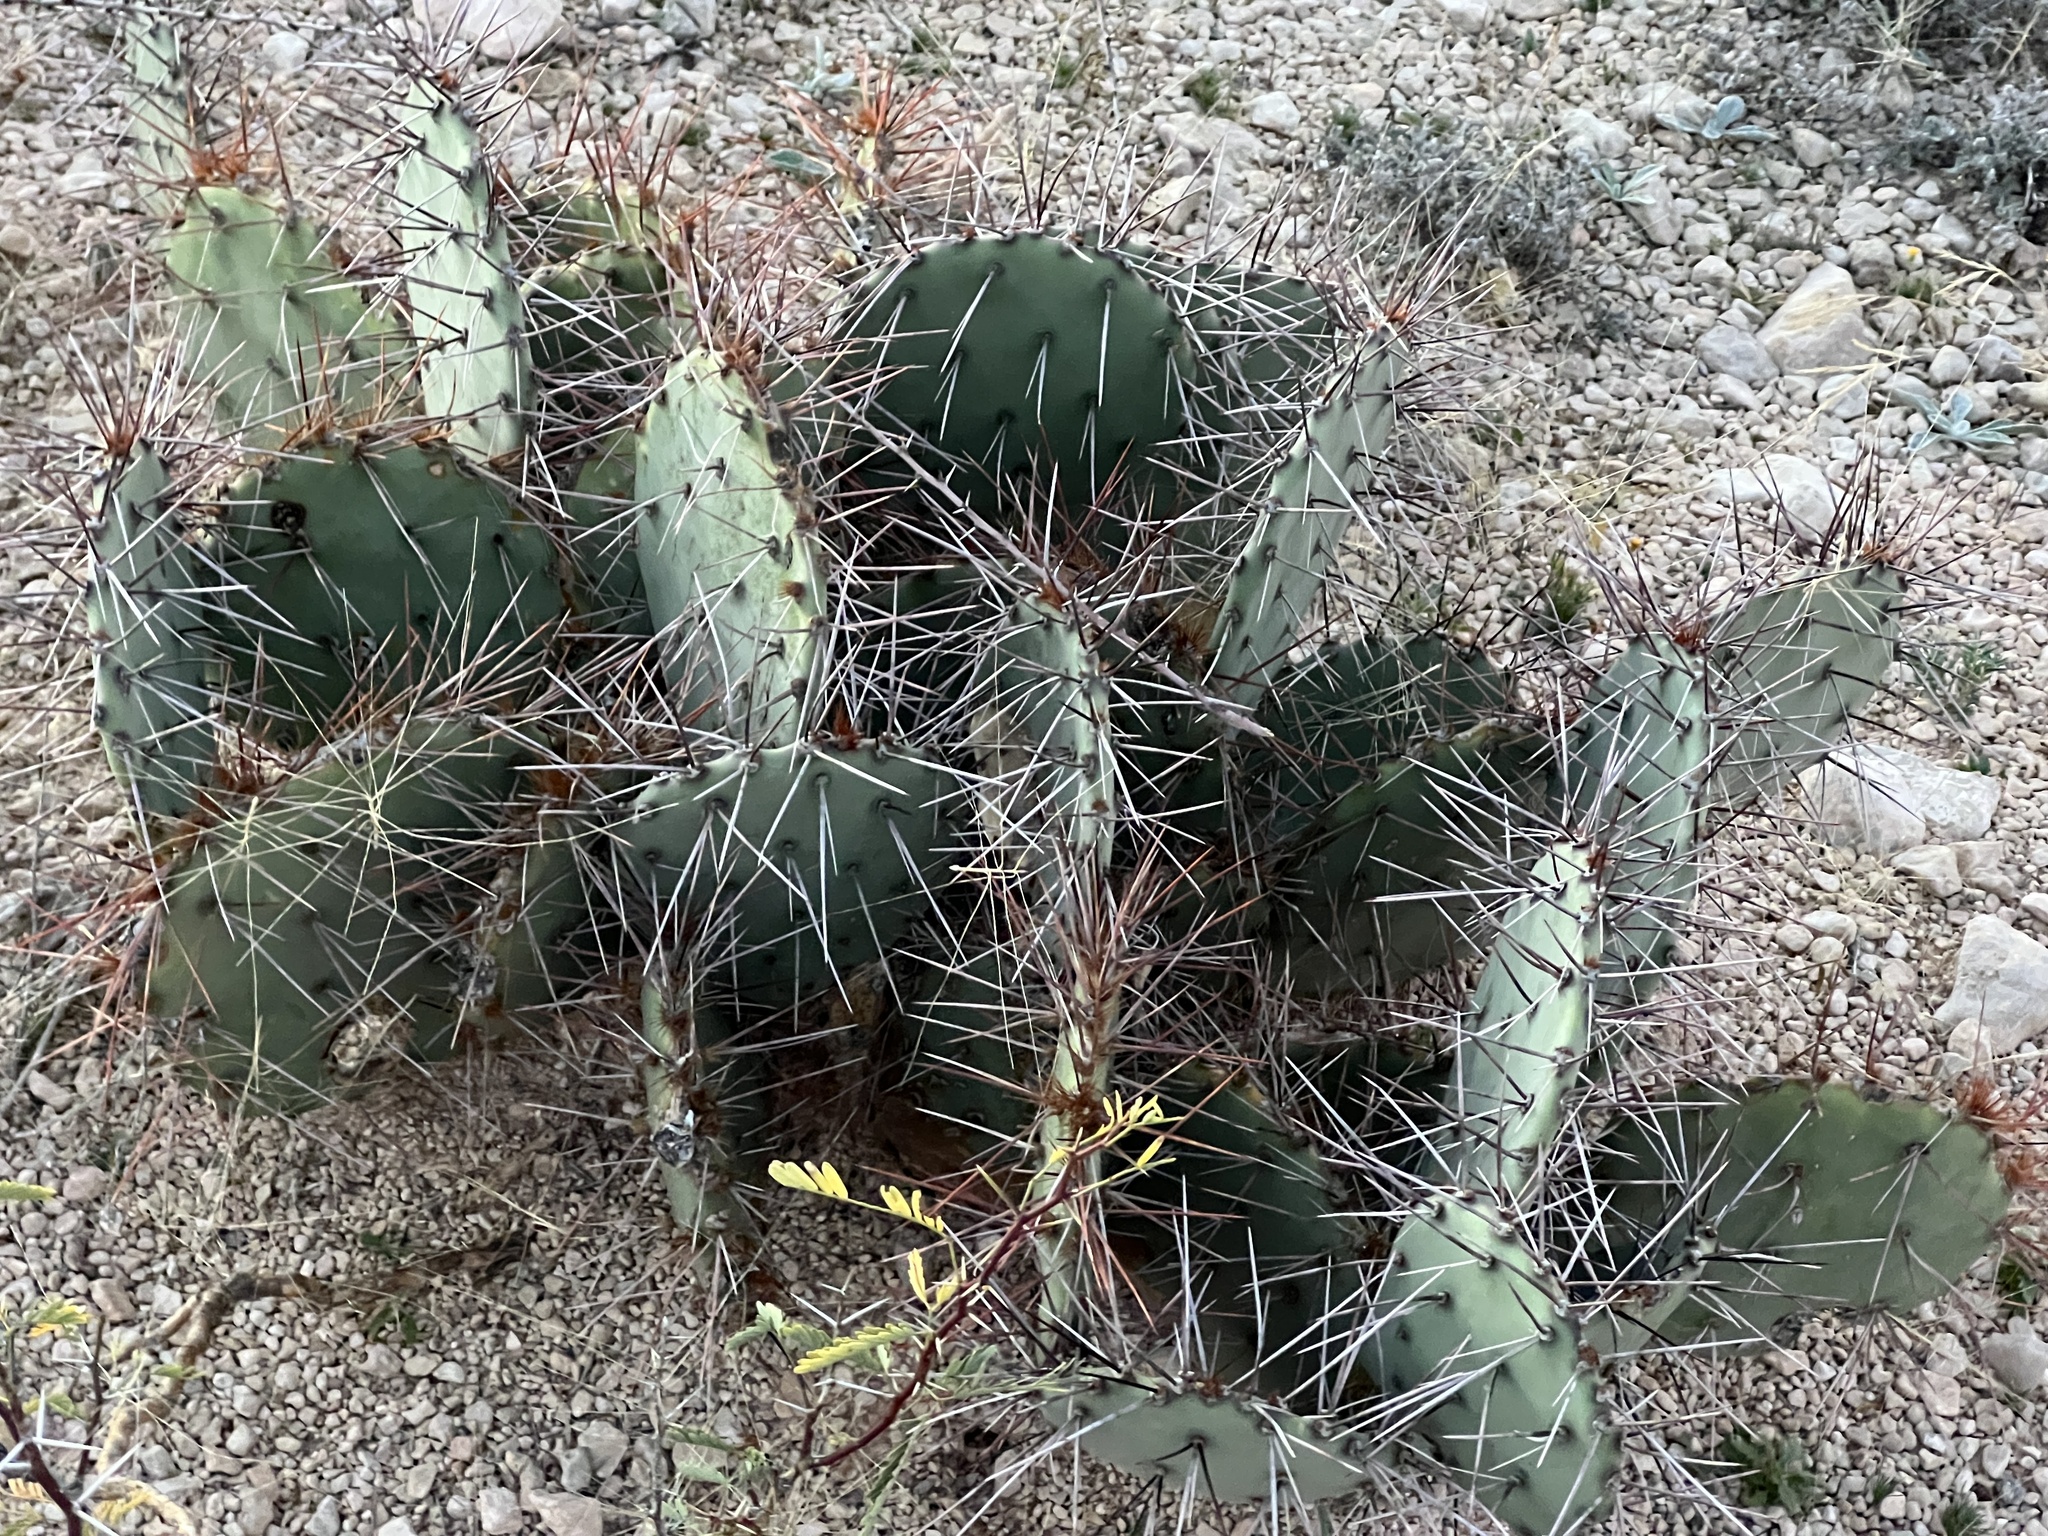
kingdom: Plantae
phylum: Tracheophyta
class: Magnoliopsida
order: Caryophyllales
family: Cactaceae
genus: Opuntia
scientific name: Opuntia phaeacantha
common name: New mexico prickly-pear
